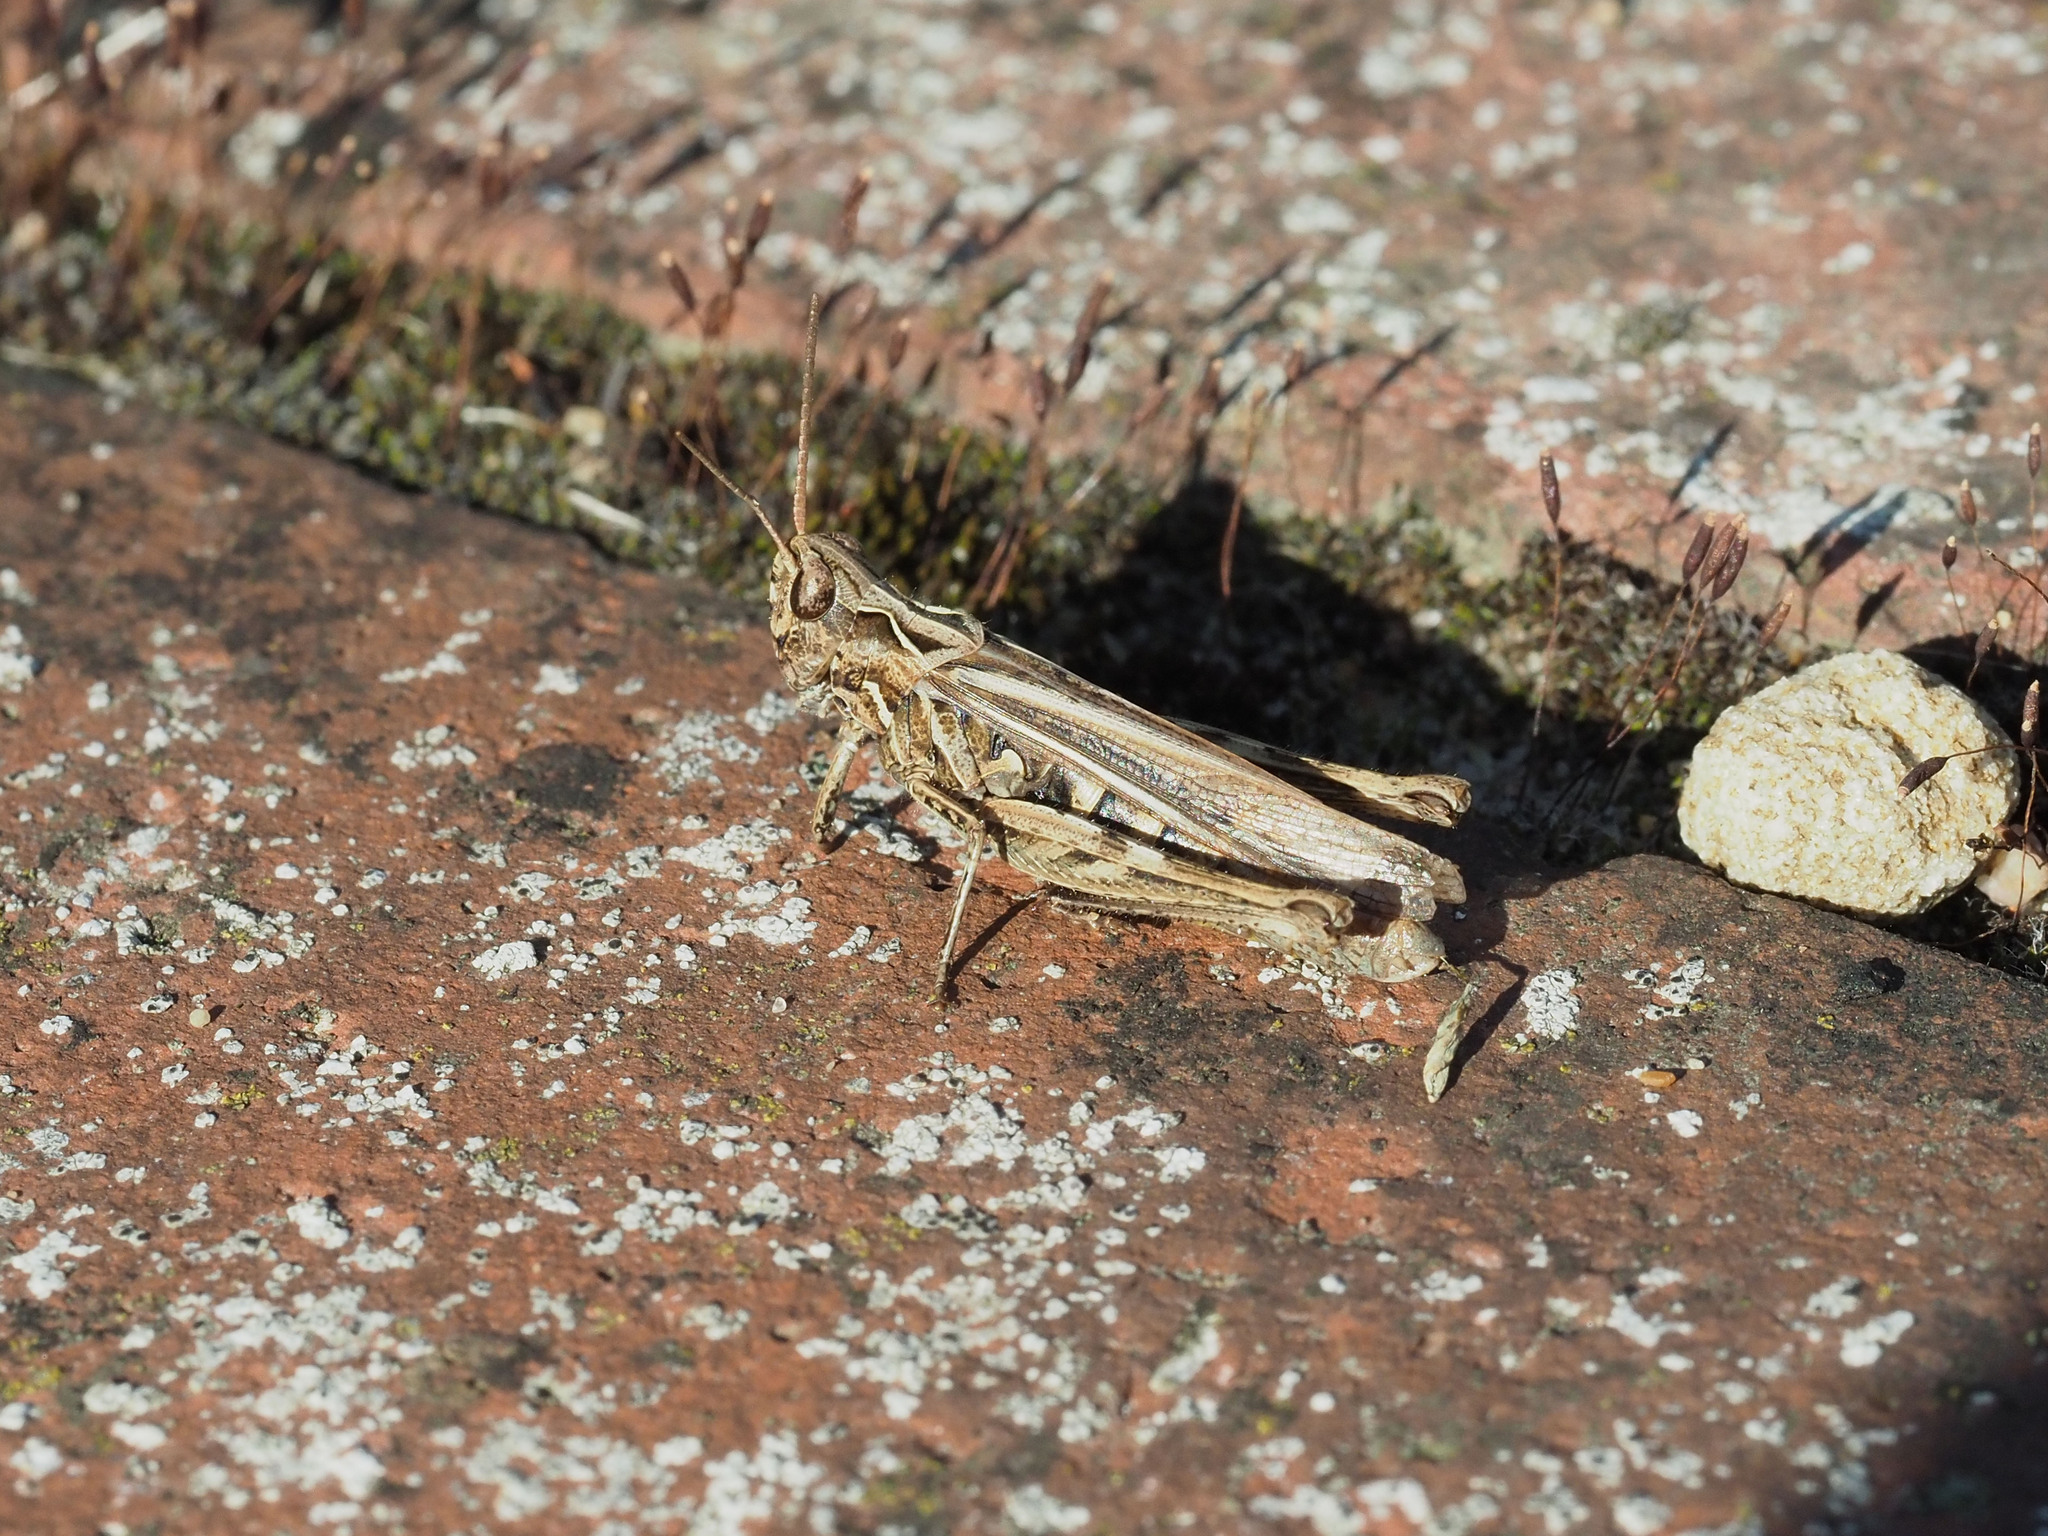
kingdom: Animalia
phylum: Arthropoda
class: Insecta
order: Orthoptera
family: Acrididae
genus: Chorthippus
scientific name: Chorthippus brunneus
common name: Field grasshopper
